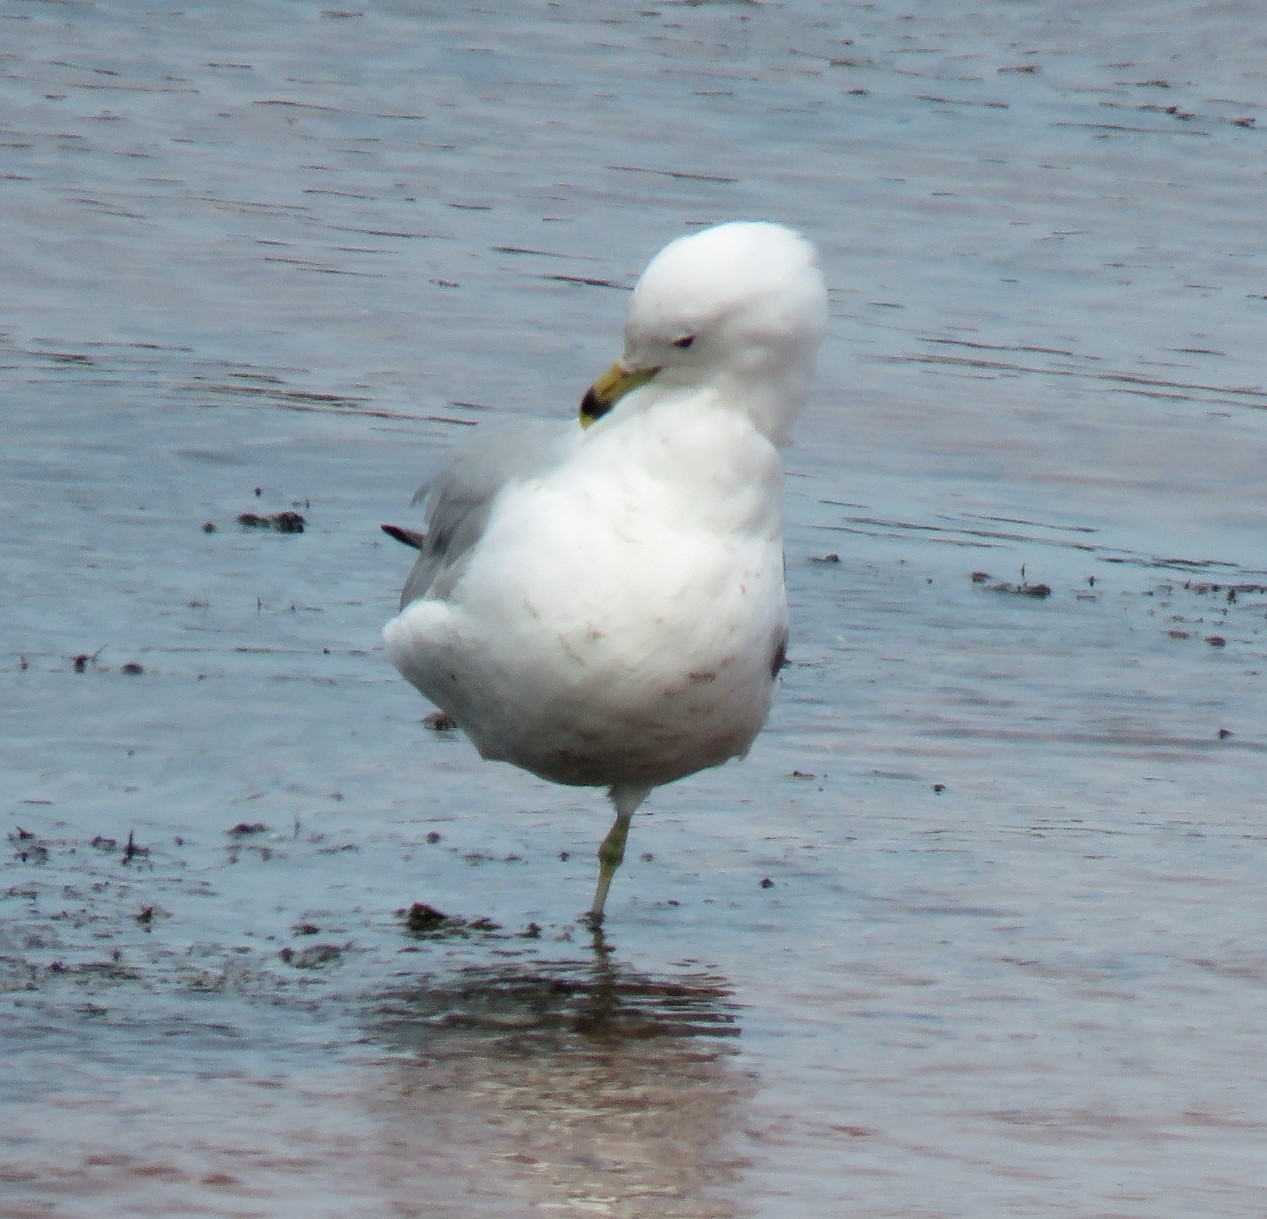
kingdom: Animalia
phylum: Chordata
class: Aves
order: Charadriiformes
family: Laridae
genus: Larus
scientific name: Larus delawarensis
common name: Ring-billed gull
